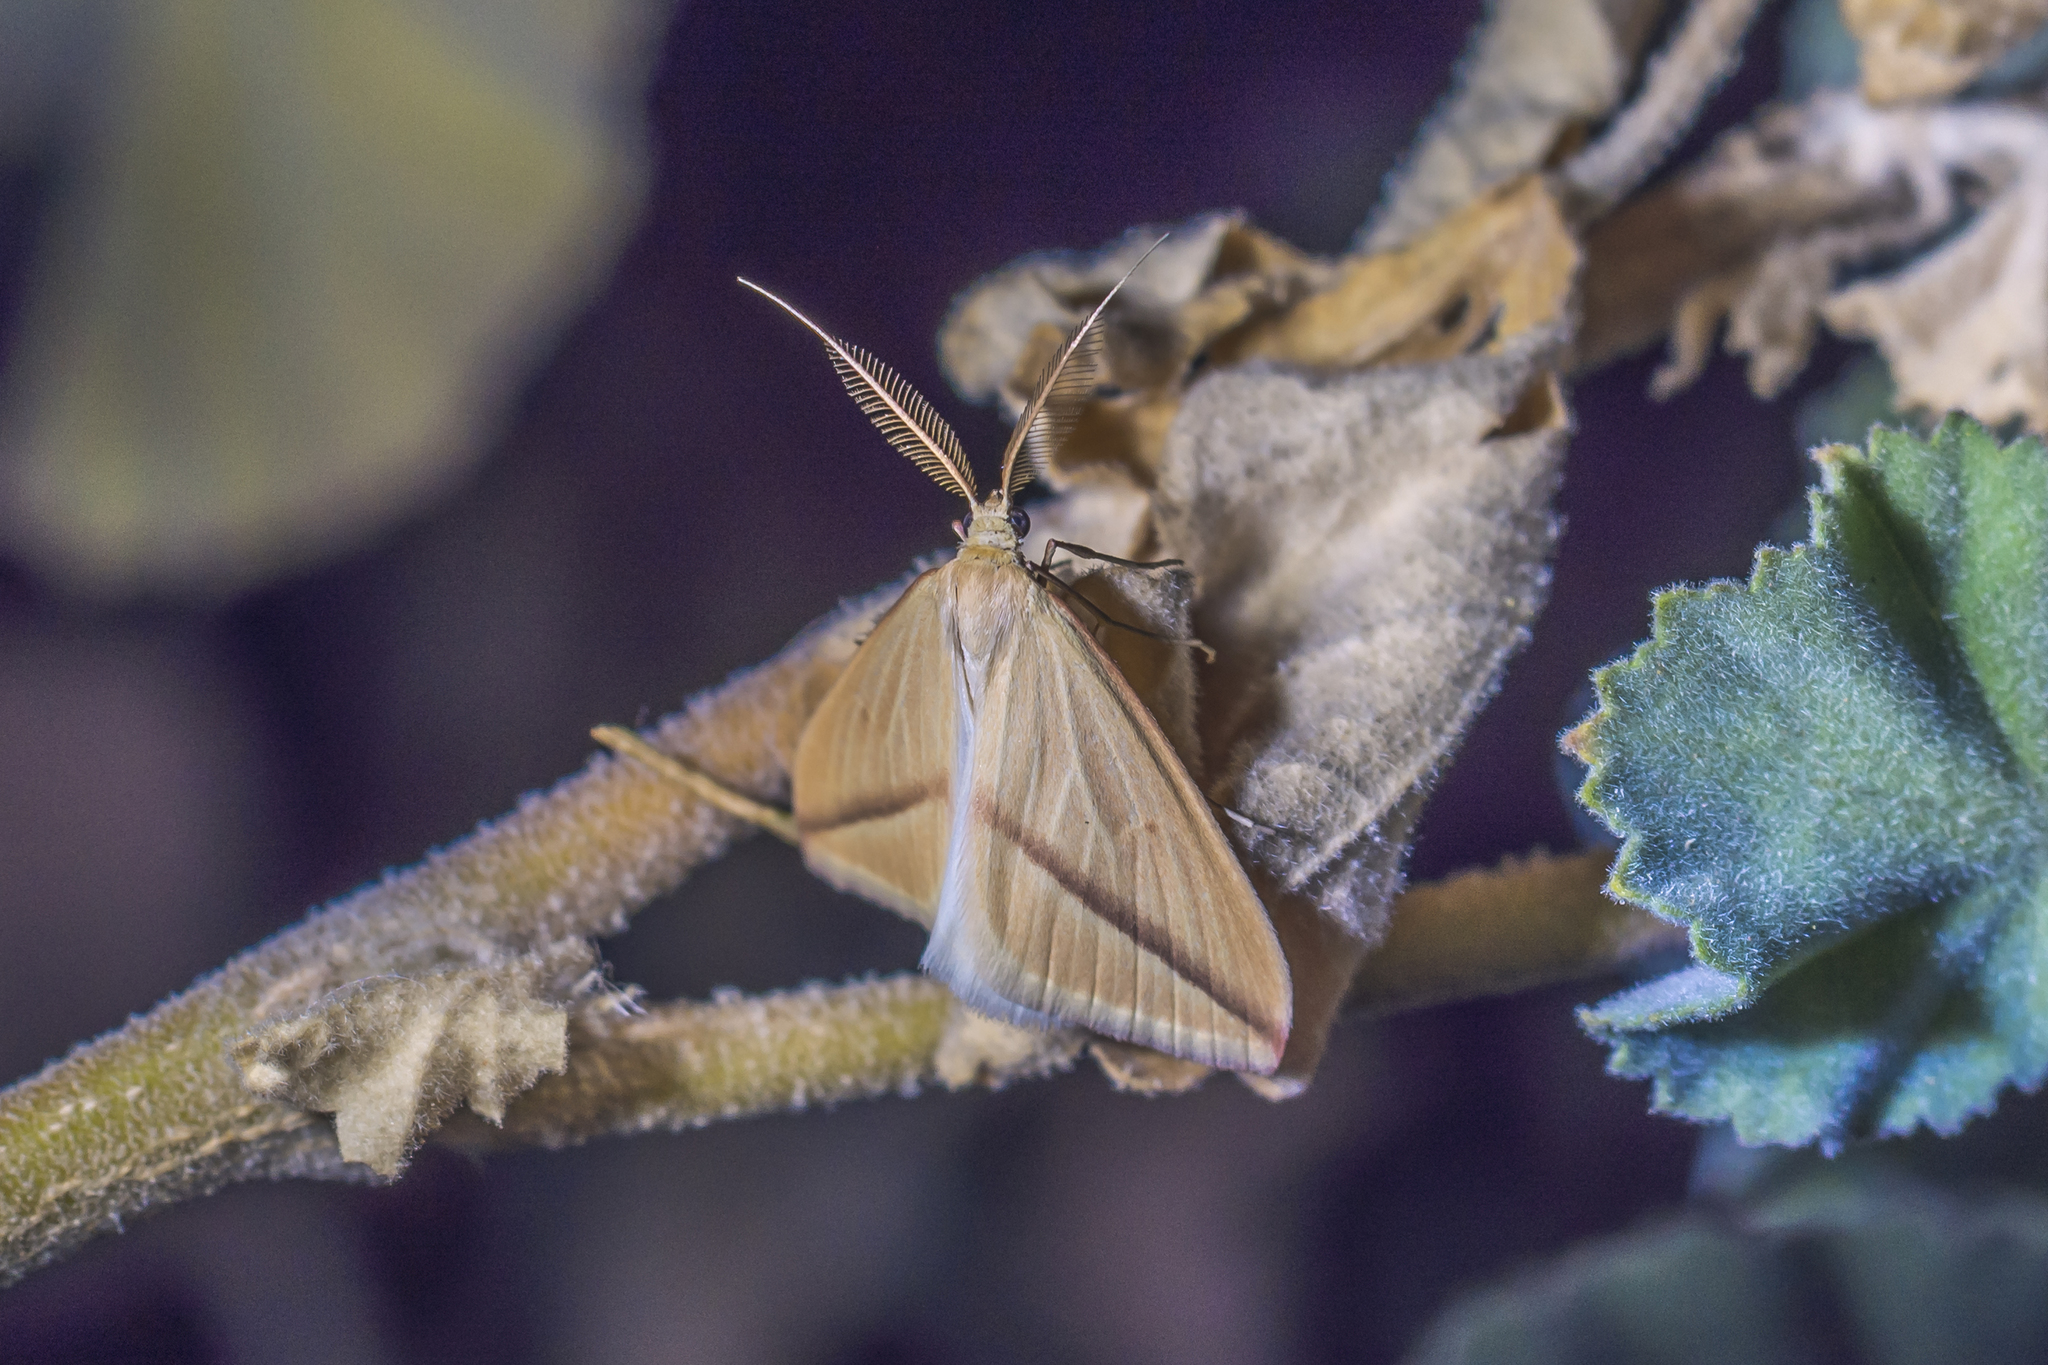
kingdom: Animalia
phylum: Arthropoda
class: Insecta
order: Lepidoptera
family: Geometridae
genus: Rhodometra
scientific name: Rhodometra sacraria
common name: Vestal
